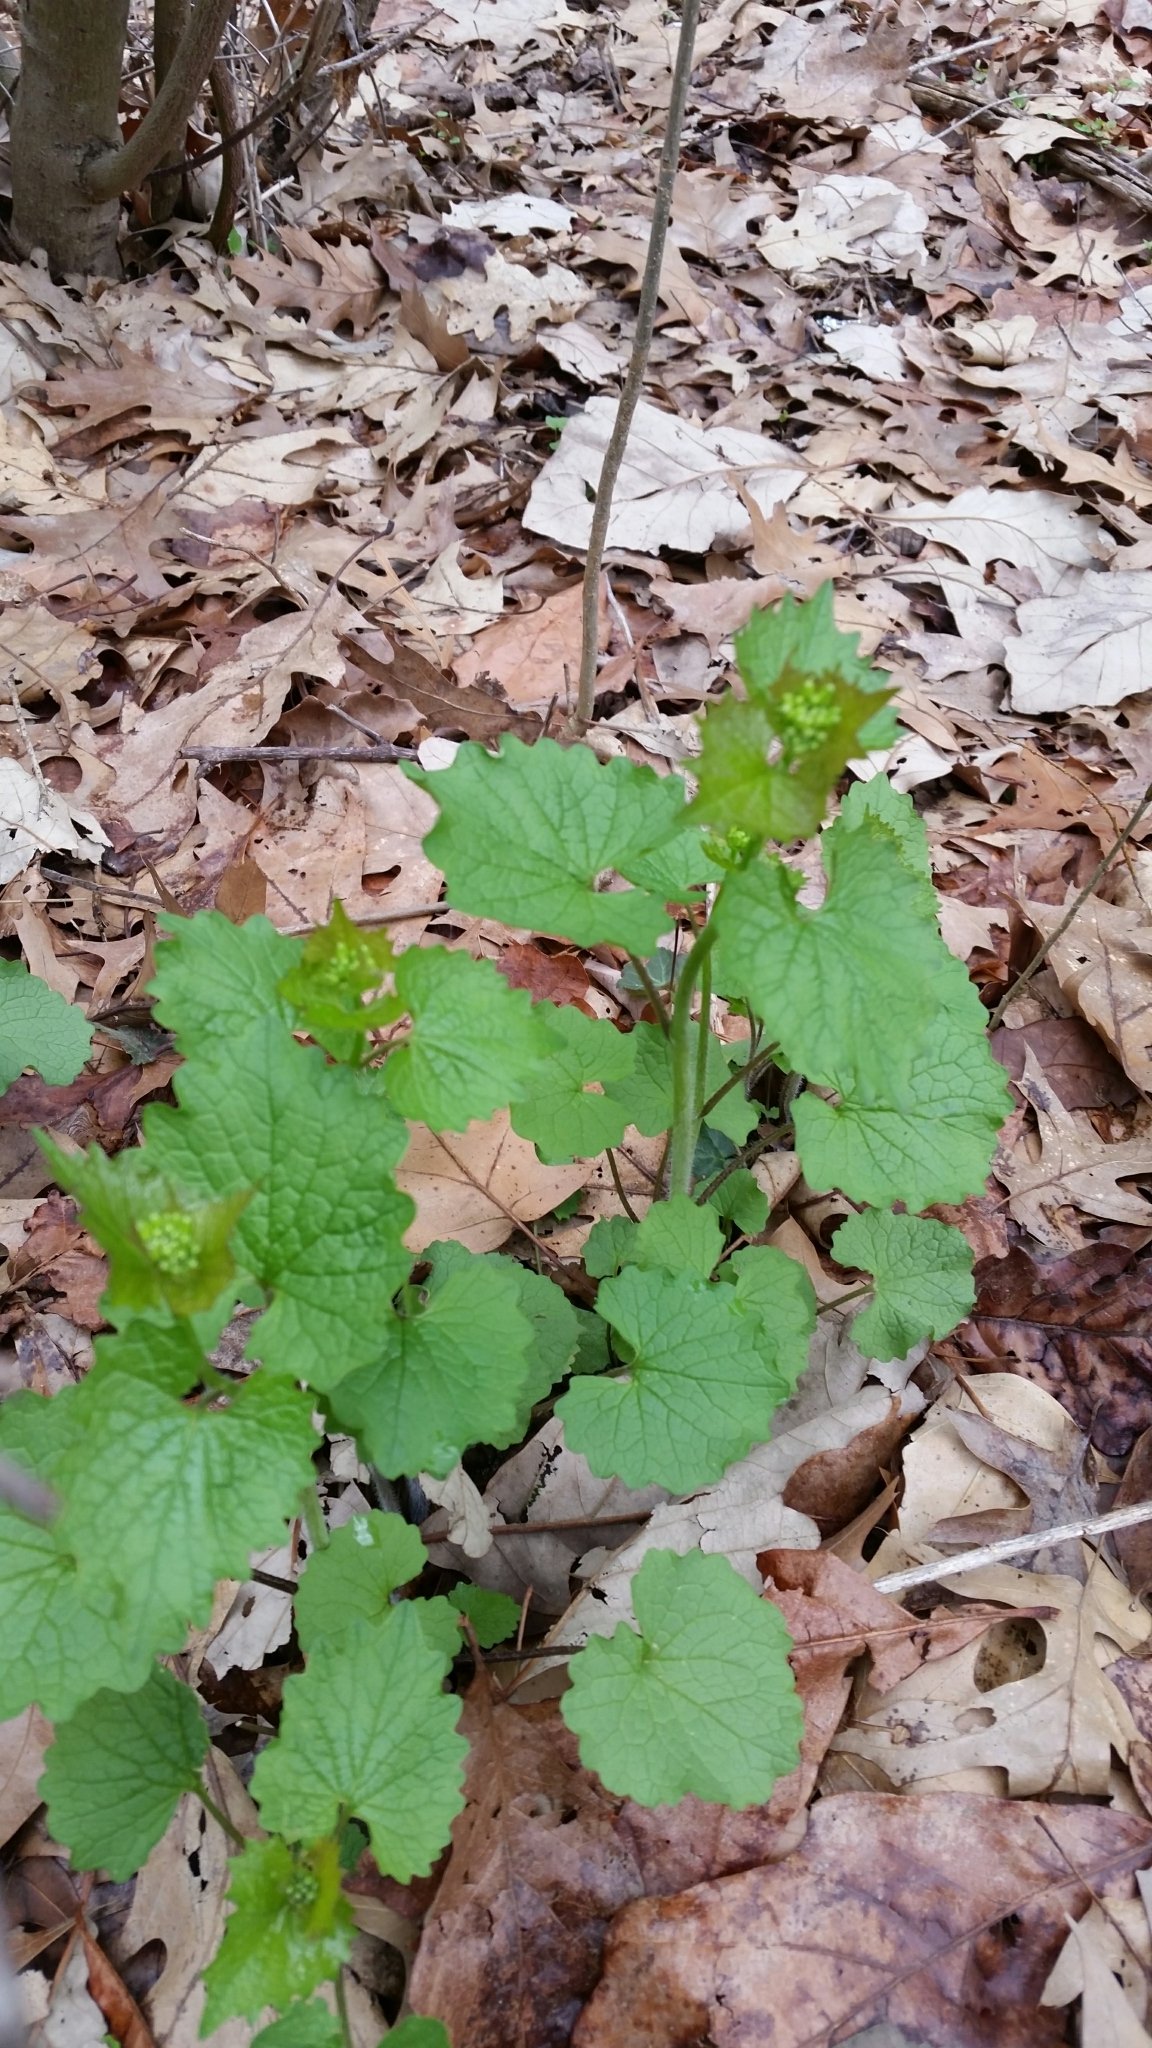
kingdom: Plantae
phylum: Tracheophyta
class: Magnoliopsida
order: Brassicales
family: Brassicaceae
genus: Alliaria
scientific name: Alliaria petiolata
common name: Garlic mustard
